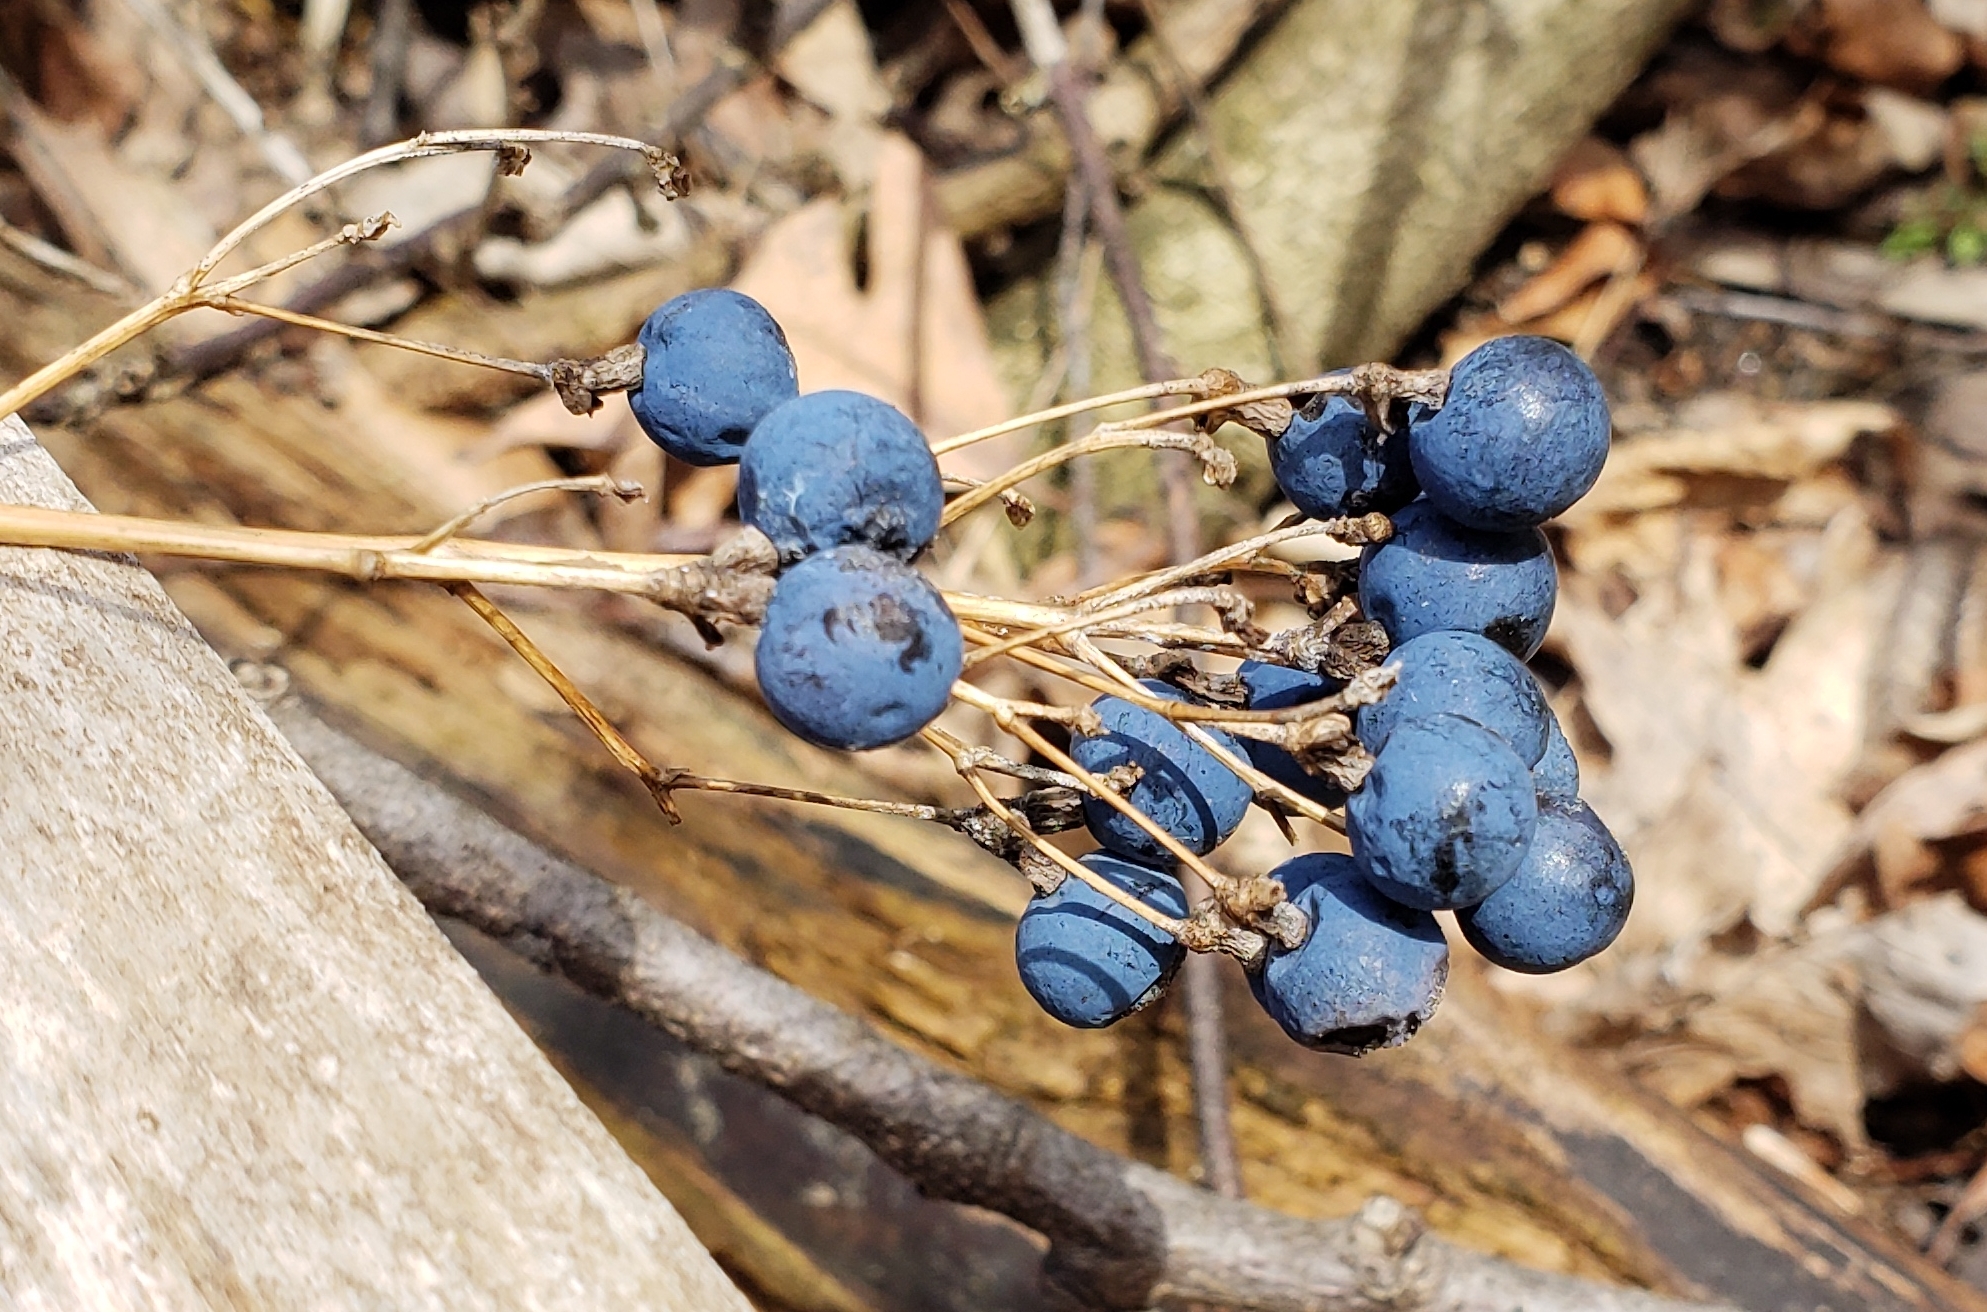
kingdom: Plantae
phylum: Tracheophyta
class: Magnoliopsida
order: Ranunculales
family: Berberidaceae
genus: Caulophyllum
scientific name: Caulophyllum thalictroides
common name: Blue cohosh
